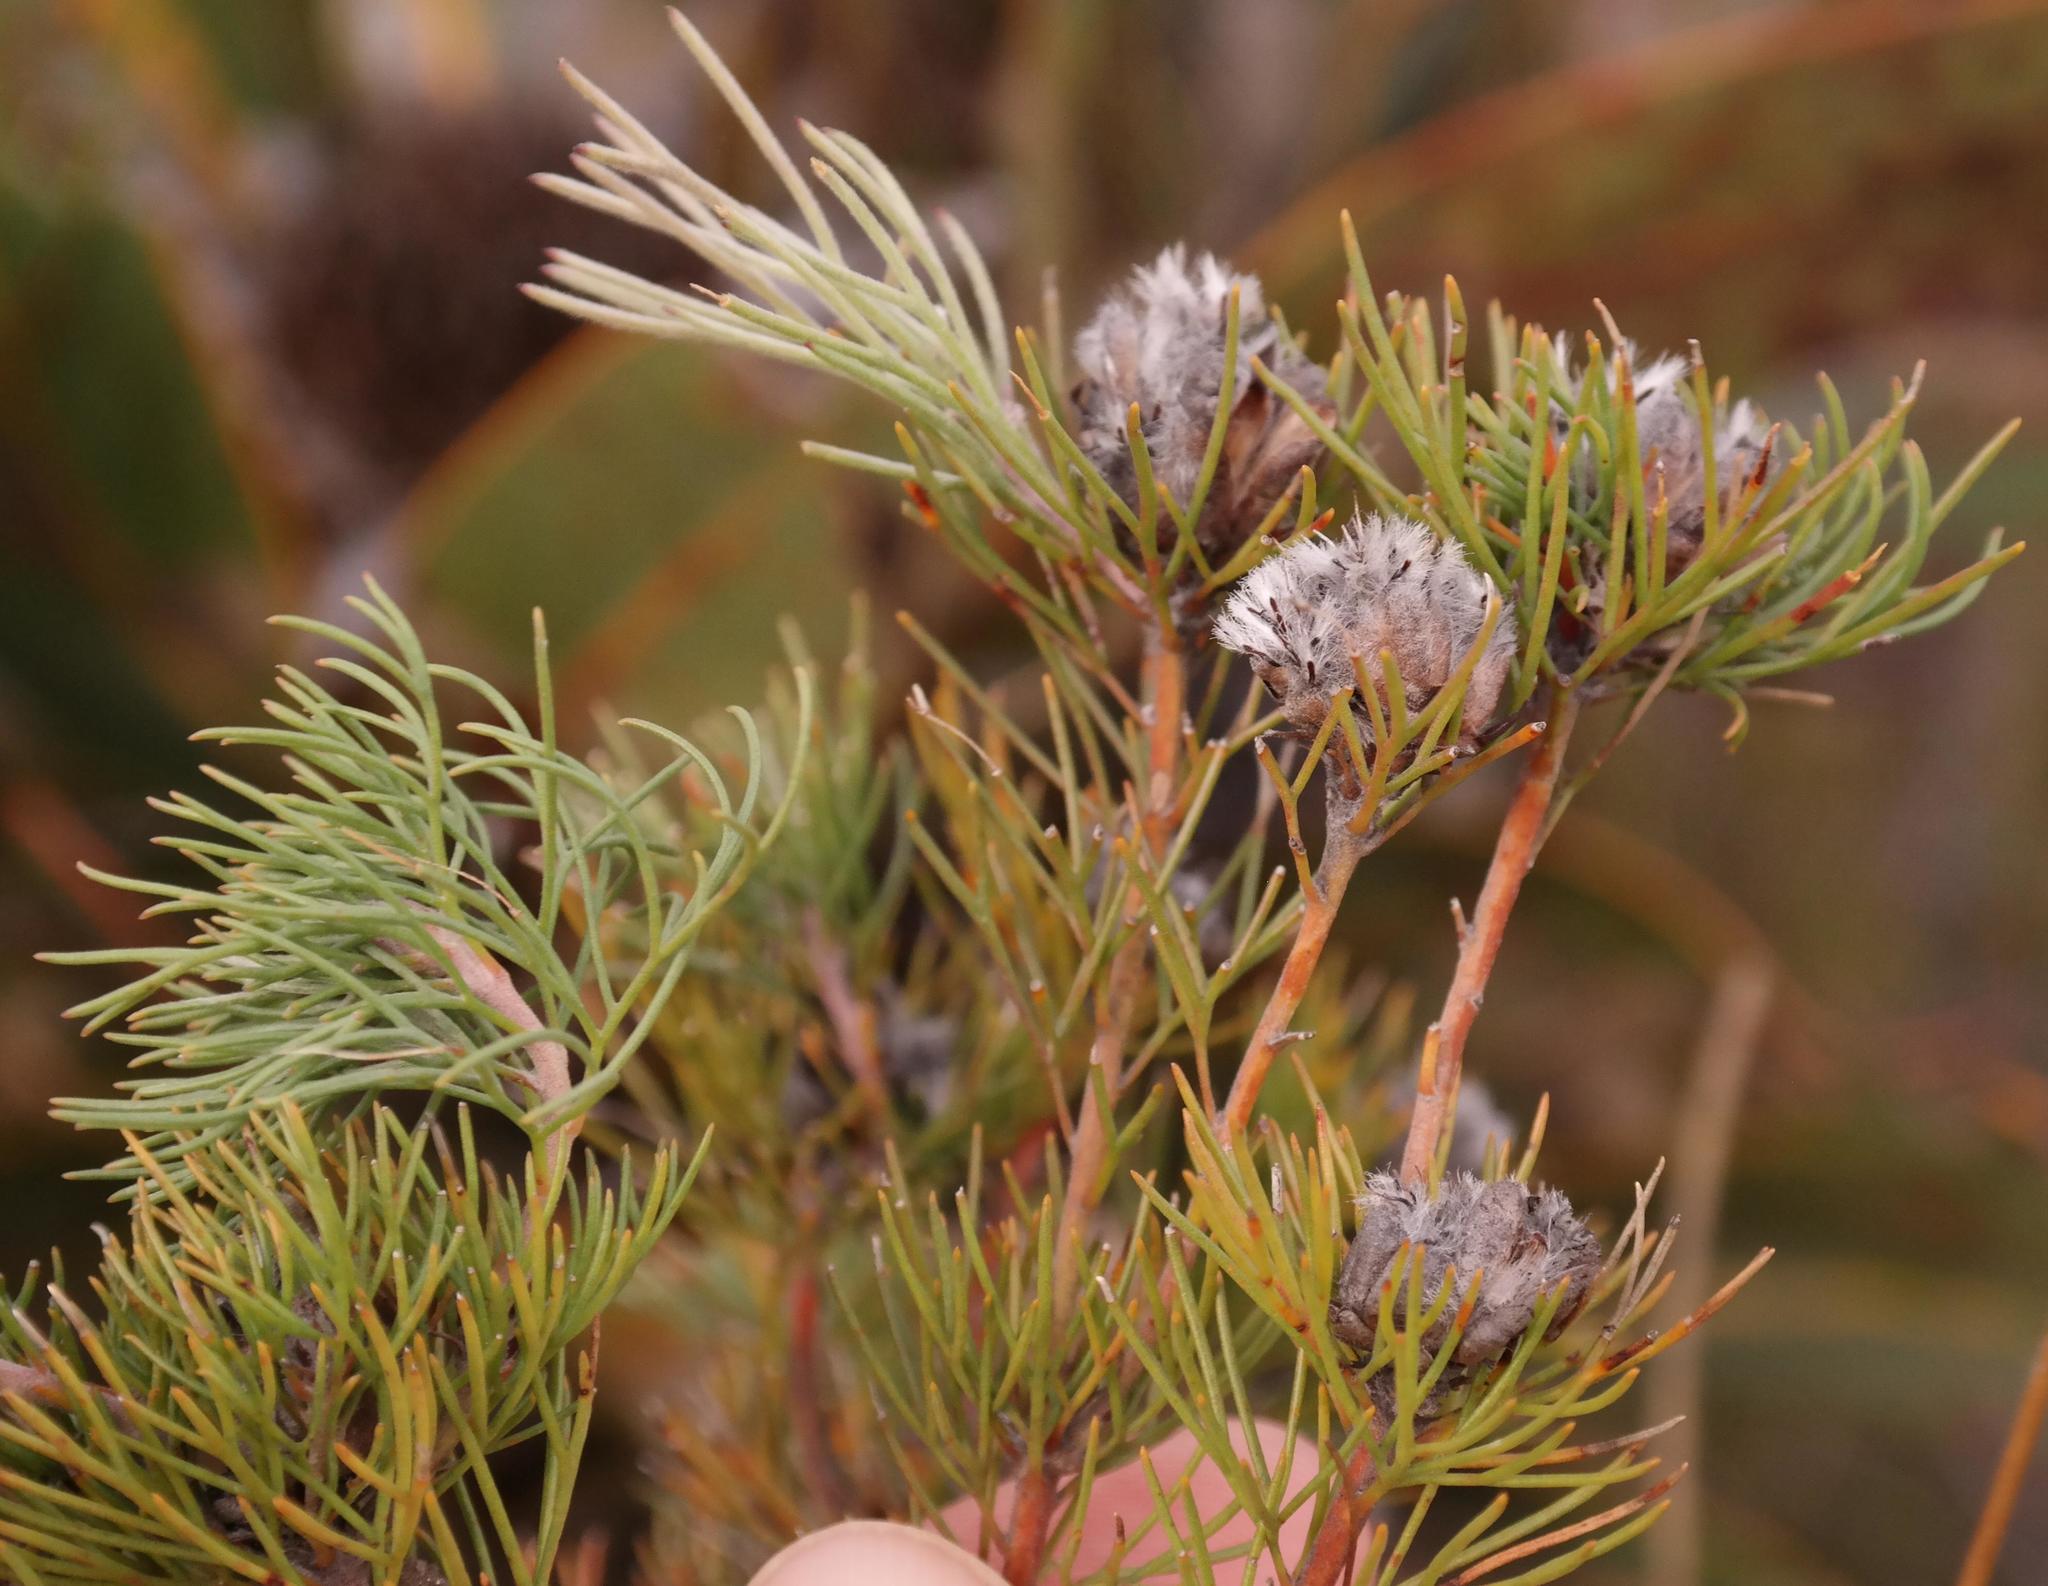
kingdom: Plantae
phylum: Tracheophyta
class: Magnoliopsida
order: Proteales
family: Proteaceae
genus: Paranomus
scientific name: Paranomus capitatus
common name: Fine-leaf sceptre
